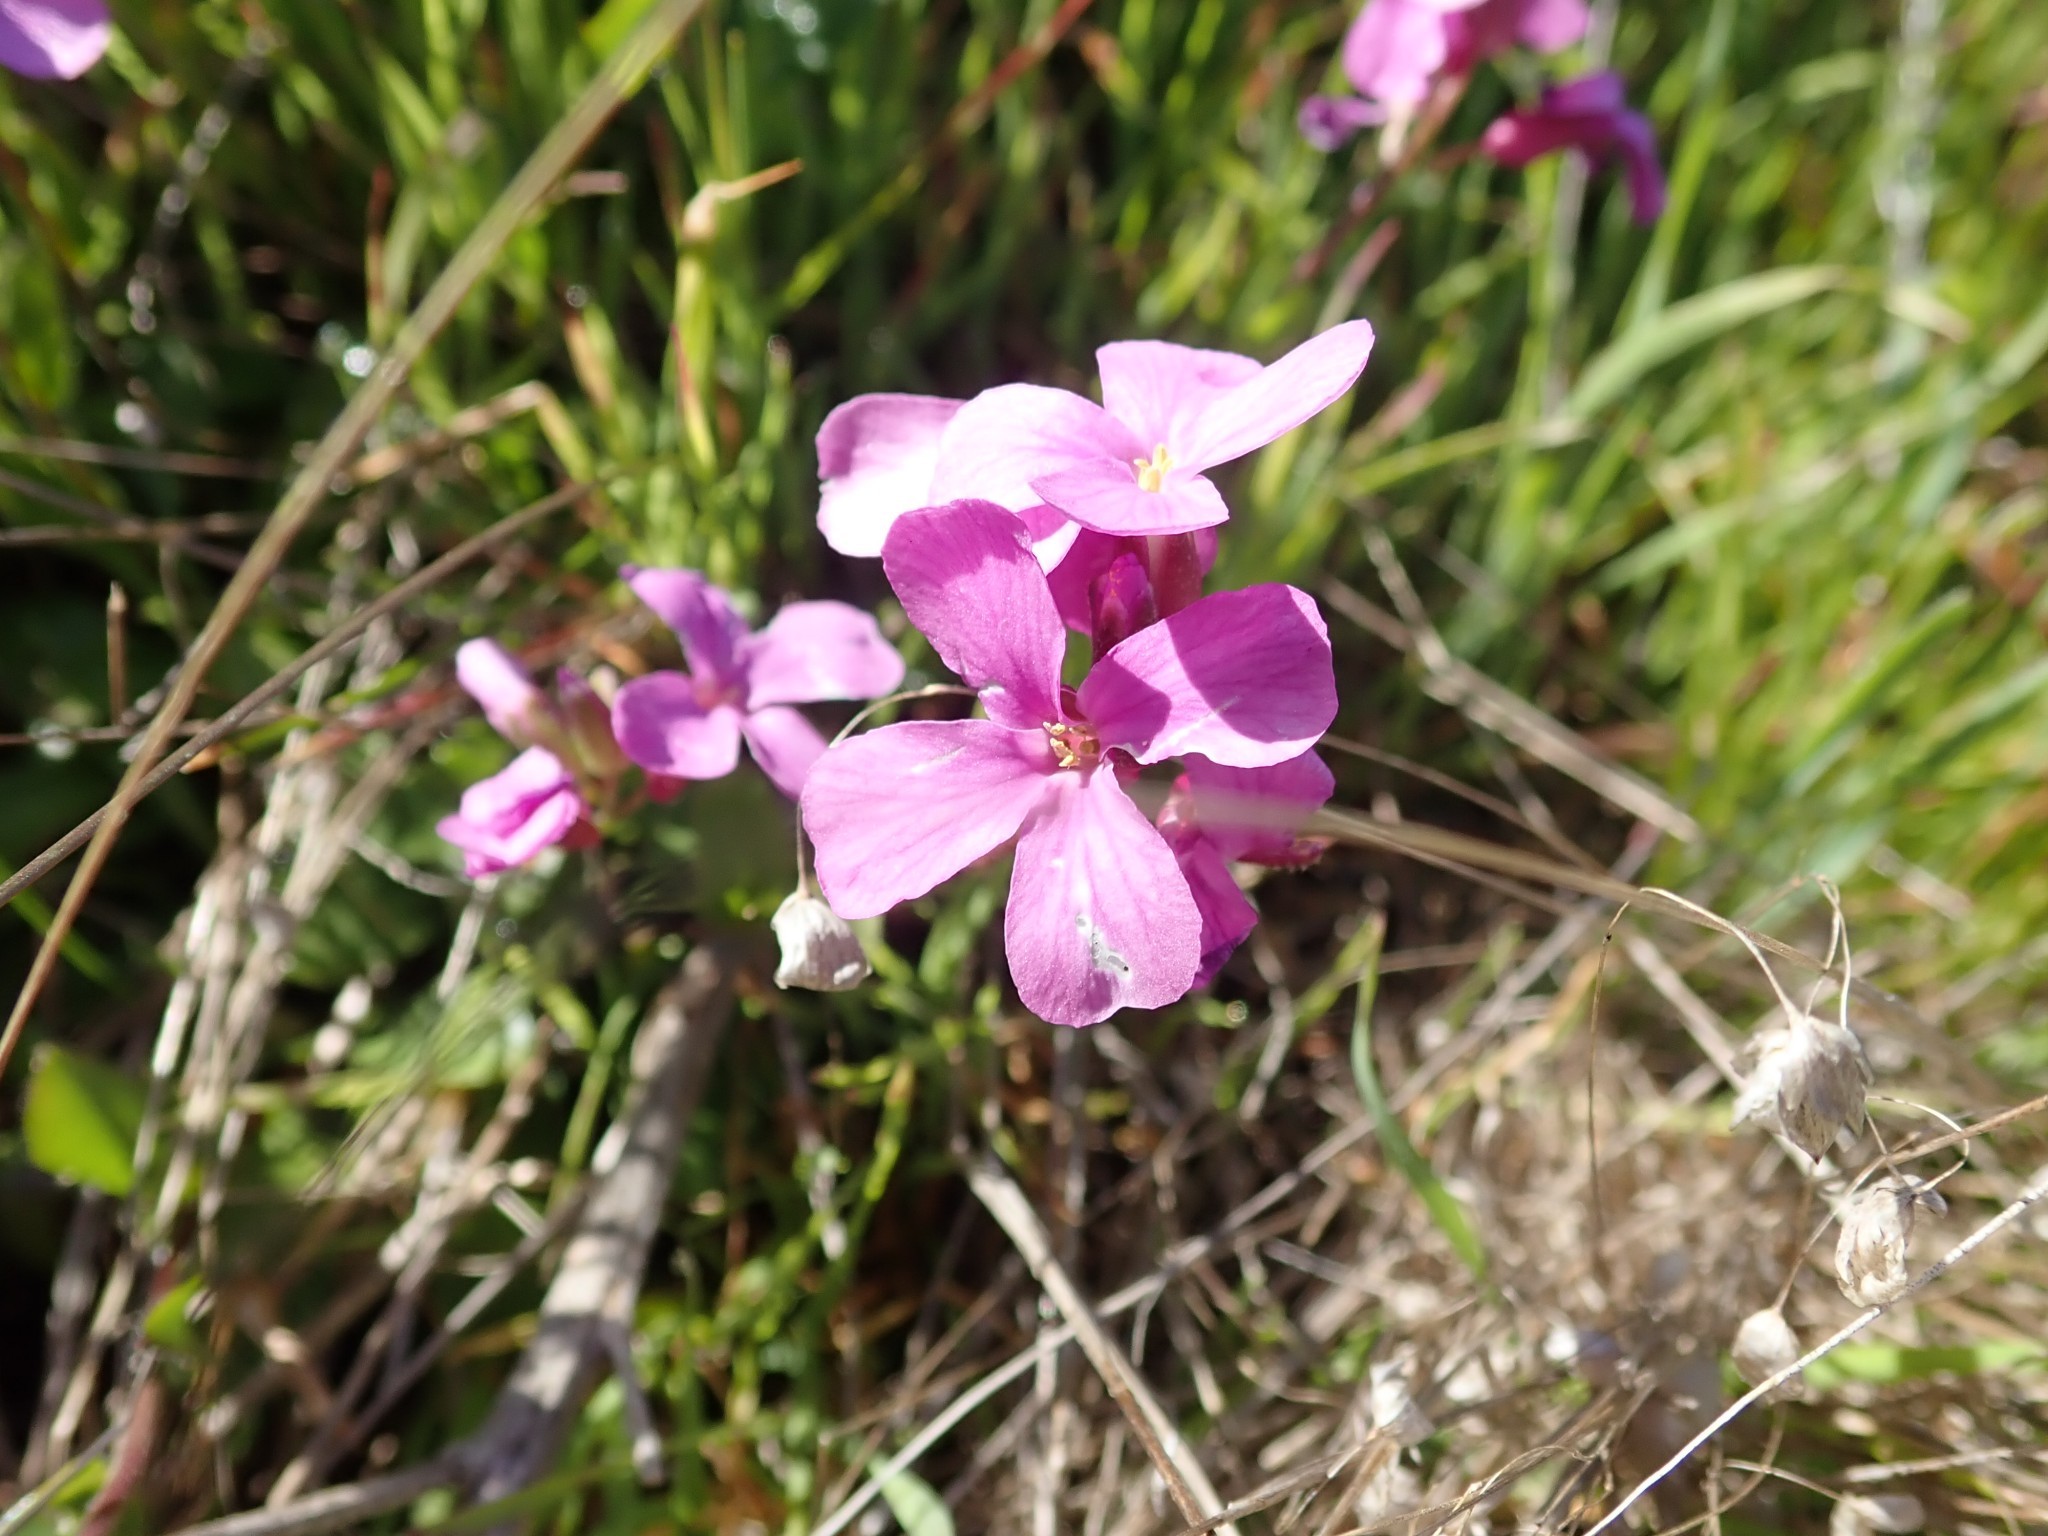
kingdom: Plantae
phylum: Tracheophyta
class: Magnoliopsida
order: Brassicales
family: Brassicaceae
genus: Arabis
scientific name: Arabis blepharophylla
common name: Rose rockcress
